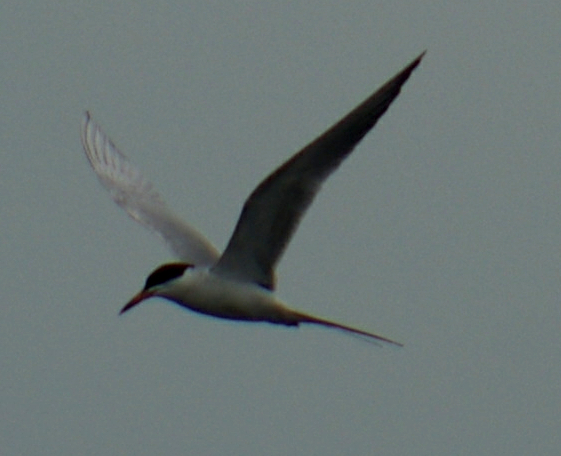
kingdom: Animalia
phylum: Chordata
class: Aves
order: Charadriiformes
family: Laridae
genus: Sterna
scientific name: Sterna forsteri
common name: Forster's tern
